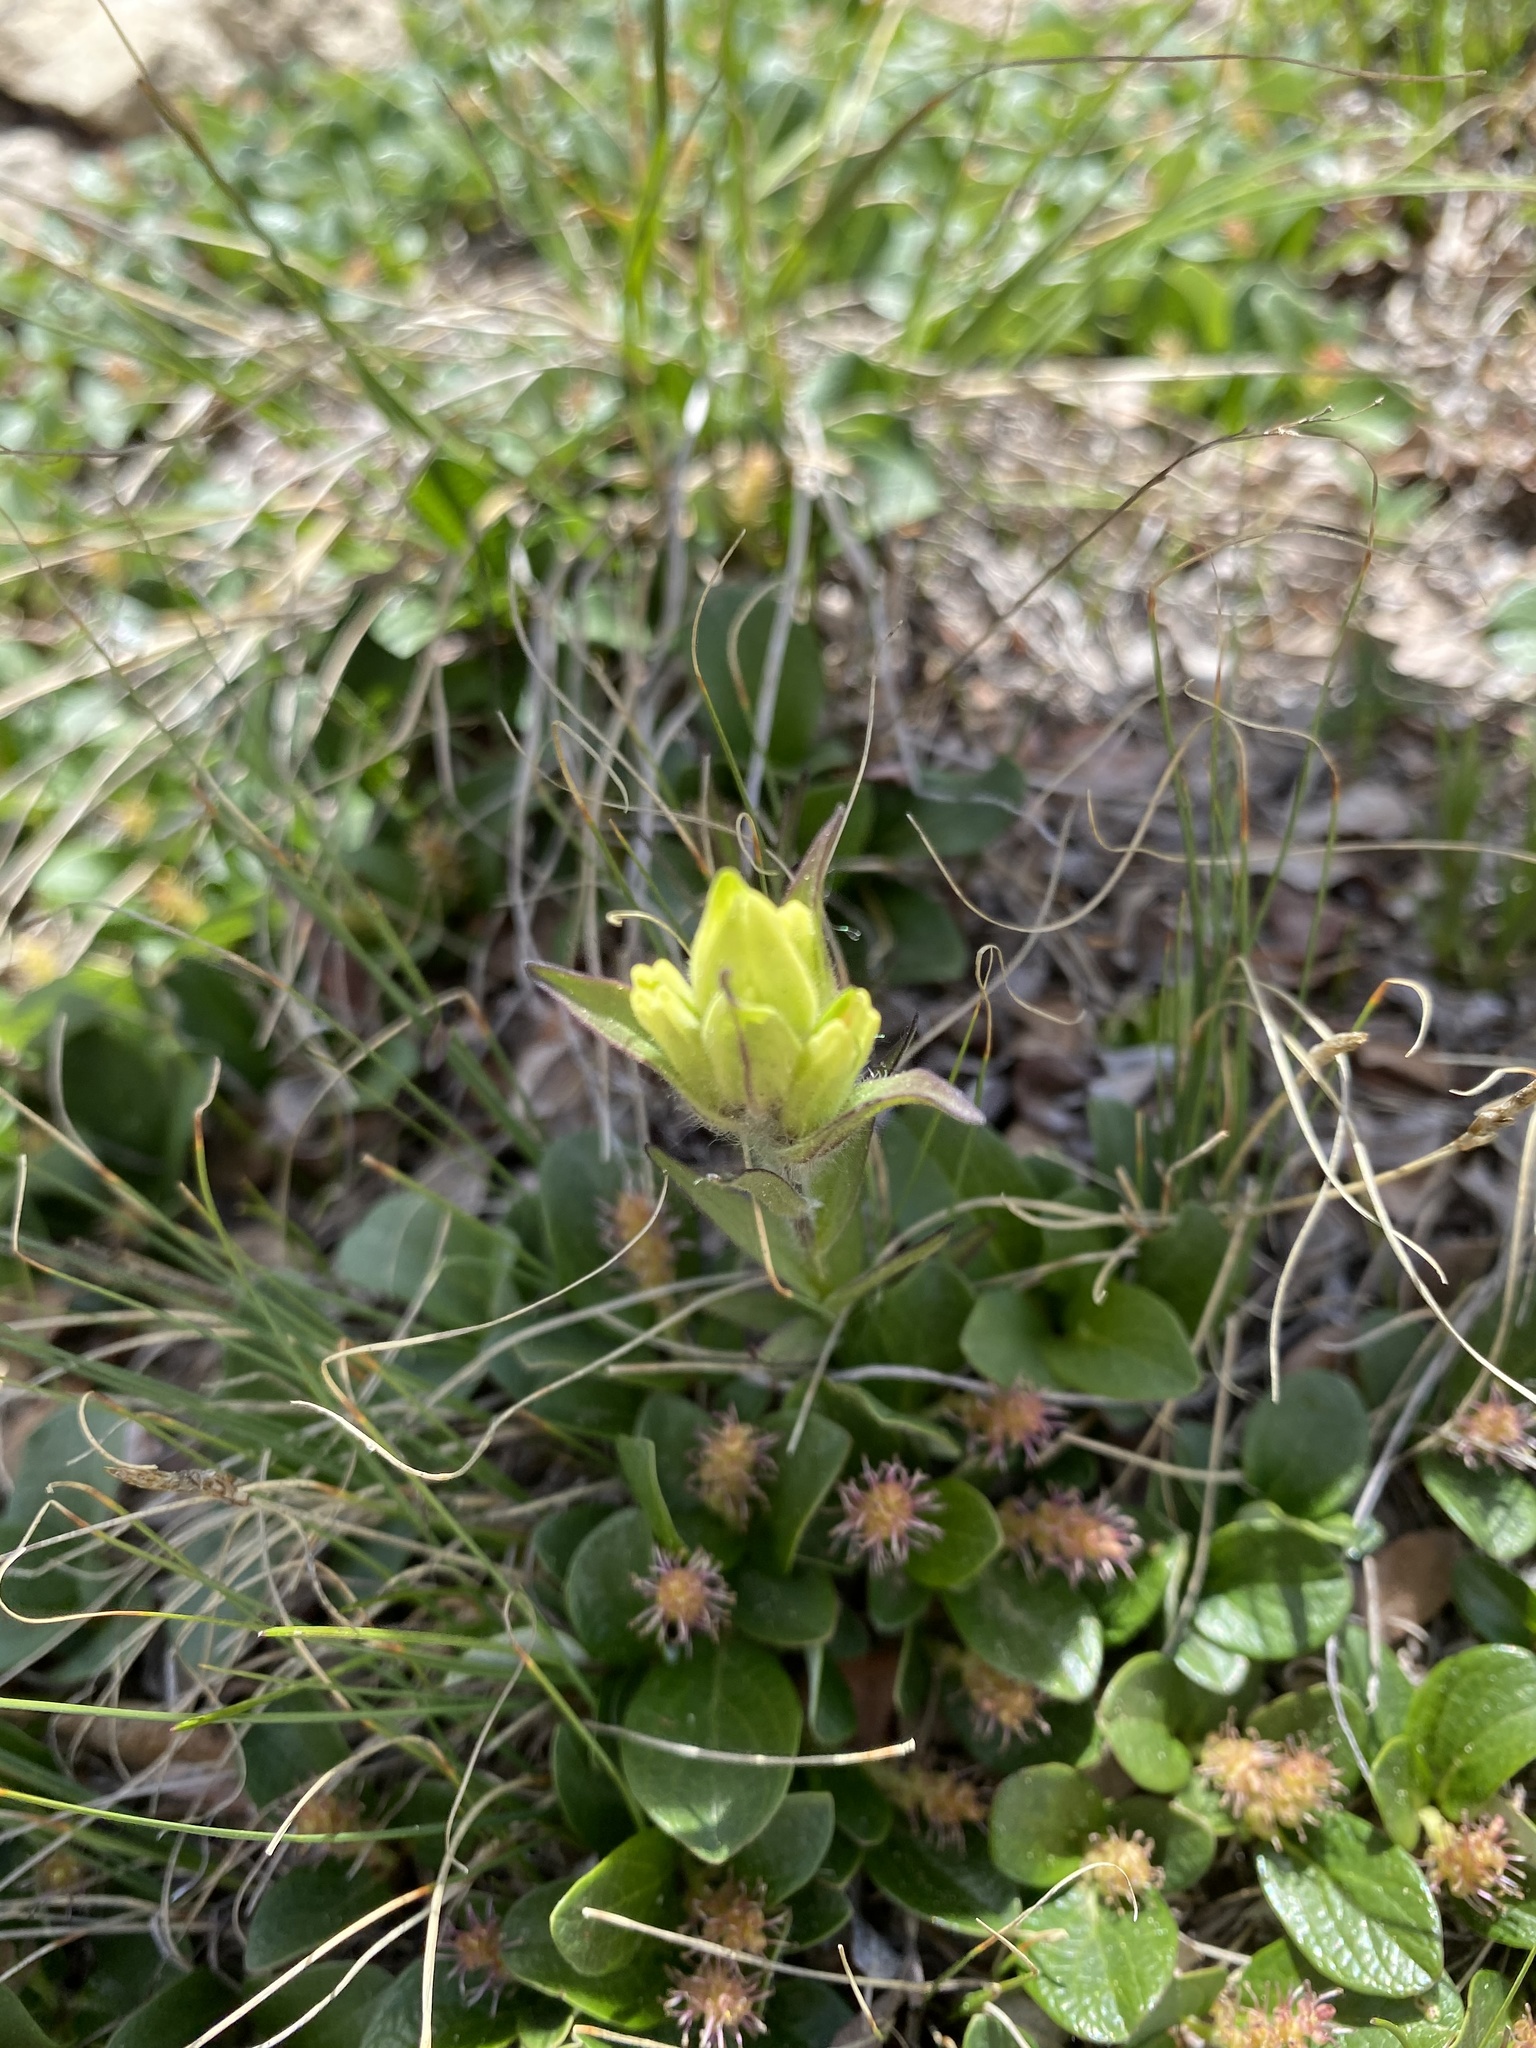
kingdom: Plantae
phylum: Tracheophyta
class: Magnoliopsida
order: Lamiales
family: Orobanchaceae
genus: Castilleja
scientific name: Castilleja occidentalis
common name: Western paintbrush
